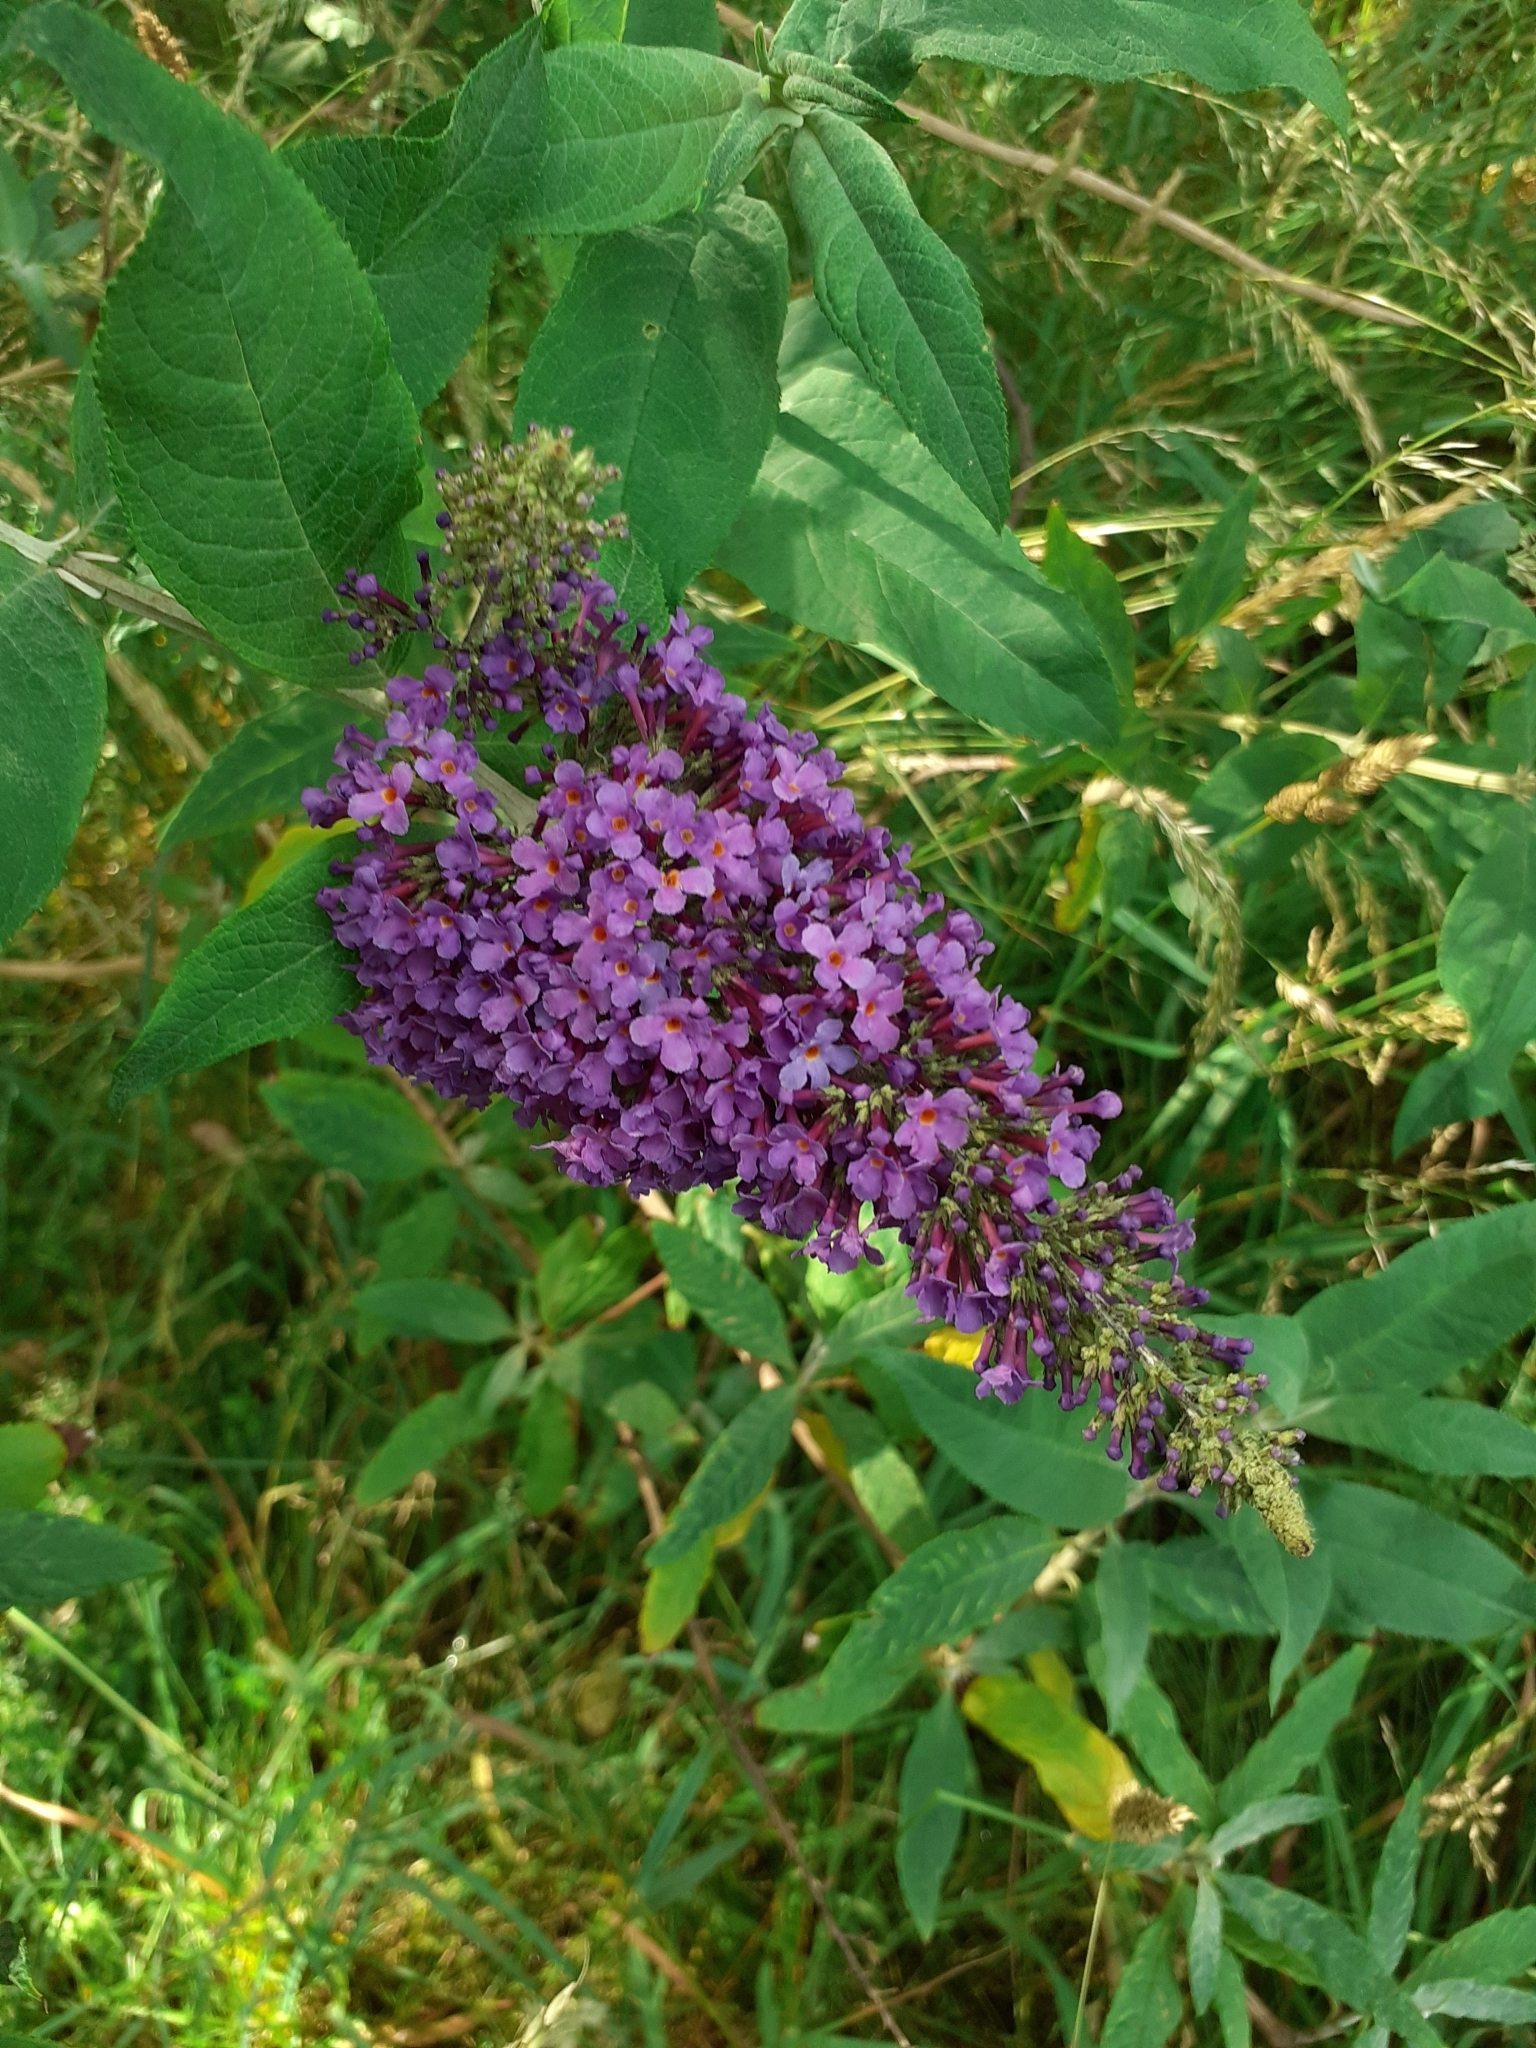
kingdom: Plantae
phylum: Tracheophyta
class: Magnoliopsida
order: Lamiales
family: Scrophulariaceae
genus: Buddleja
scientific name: Buddleja davidii
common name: Butterfly-bush
